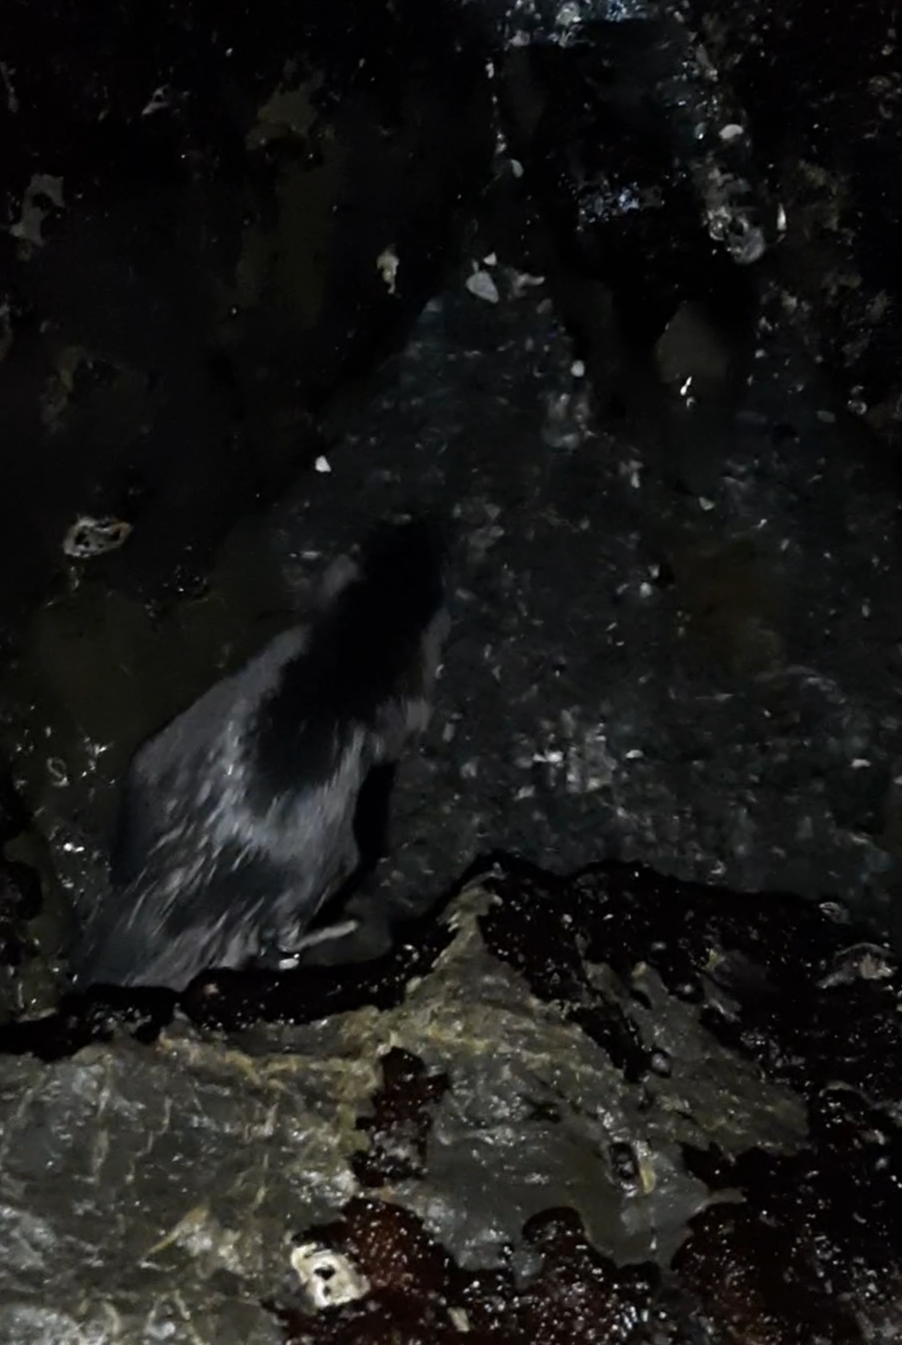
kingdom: Animalia
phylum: Chordata
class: Aves
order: Sphenisciformes
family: Spheniscidae
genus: Eudyptula
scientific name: Eudyptula minor
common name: Little penguin
